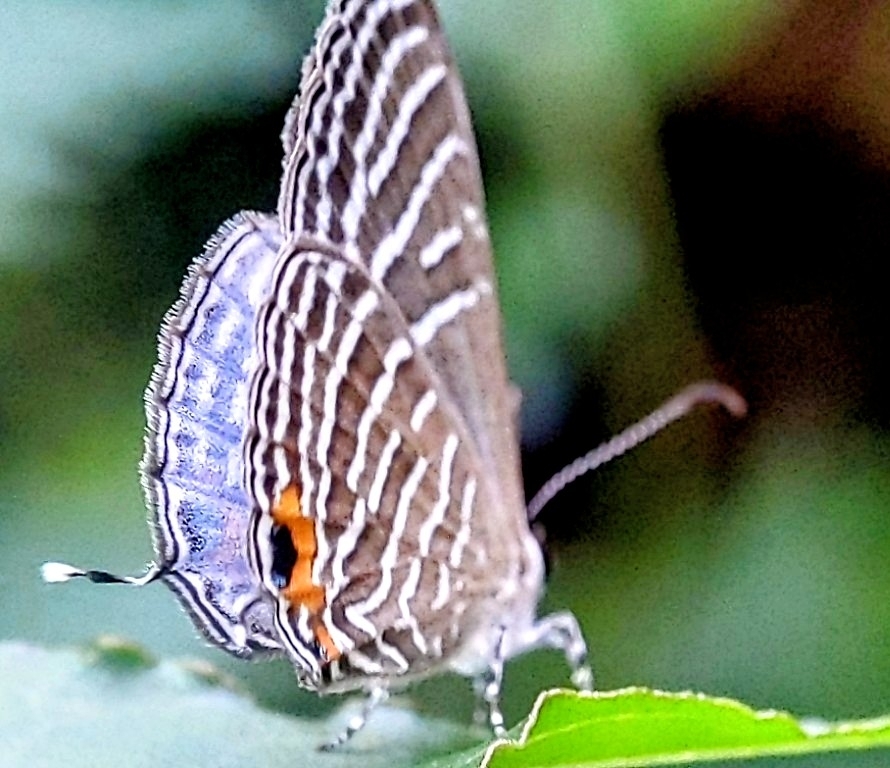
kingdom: Animalia
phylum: Arthropoda
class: Insecta
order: Lepidoptera
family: Lycaenidae
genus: Jamides
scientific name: Jamides celeno
